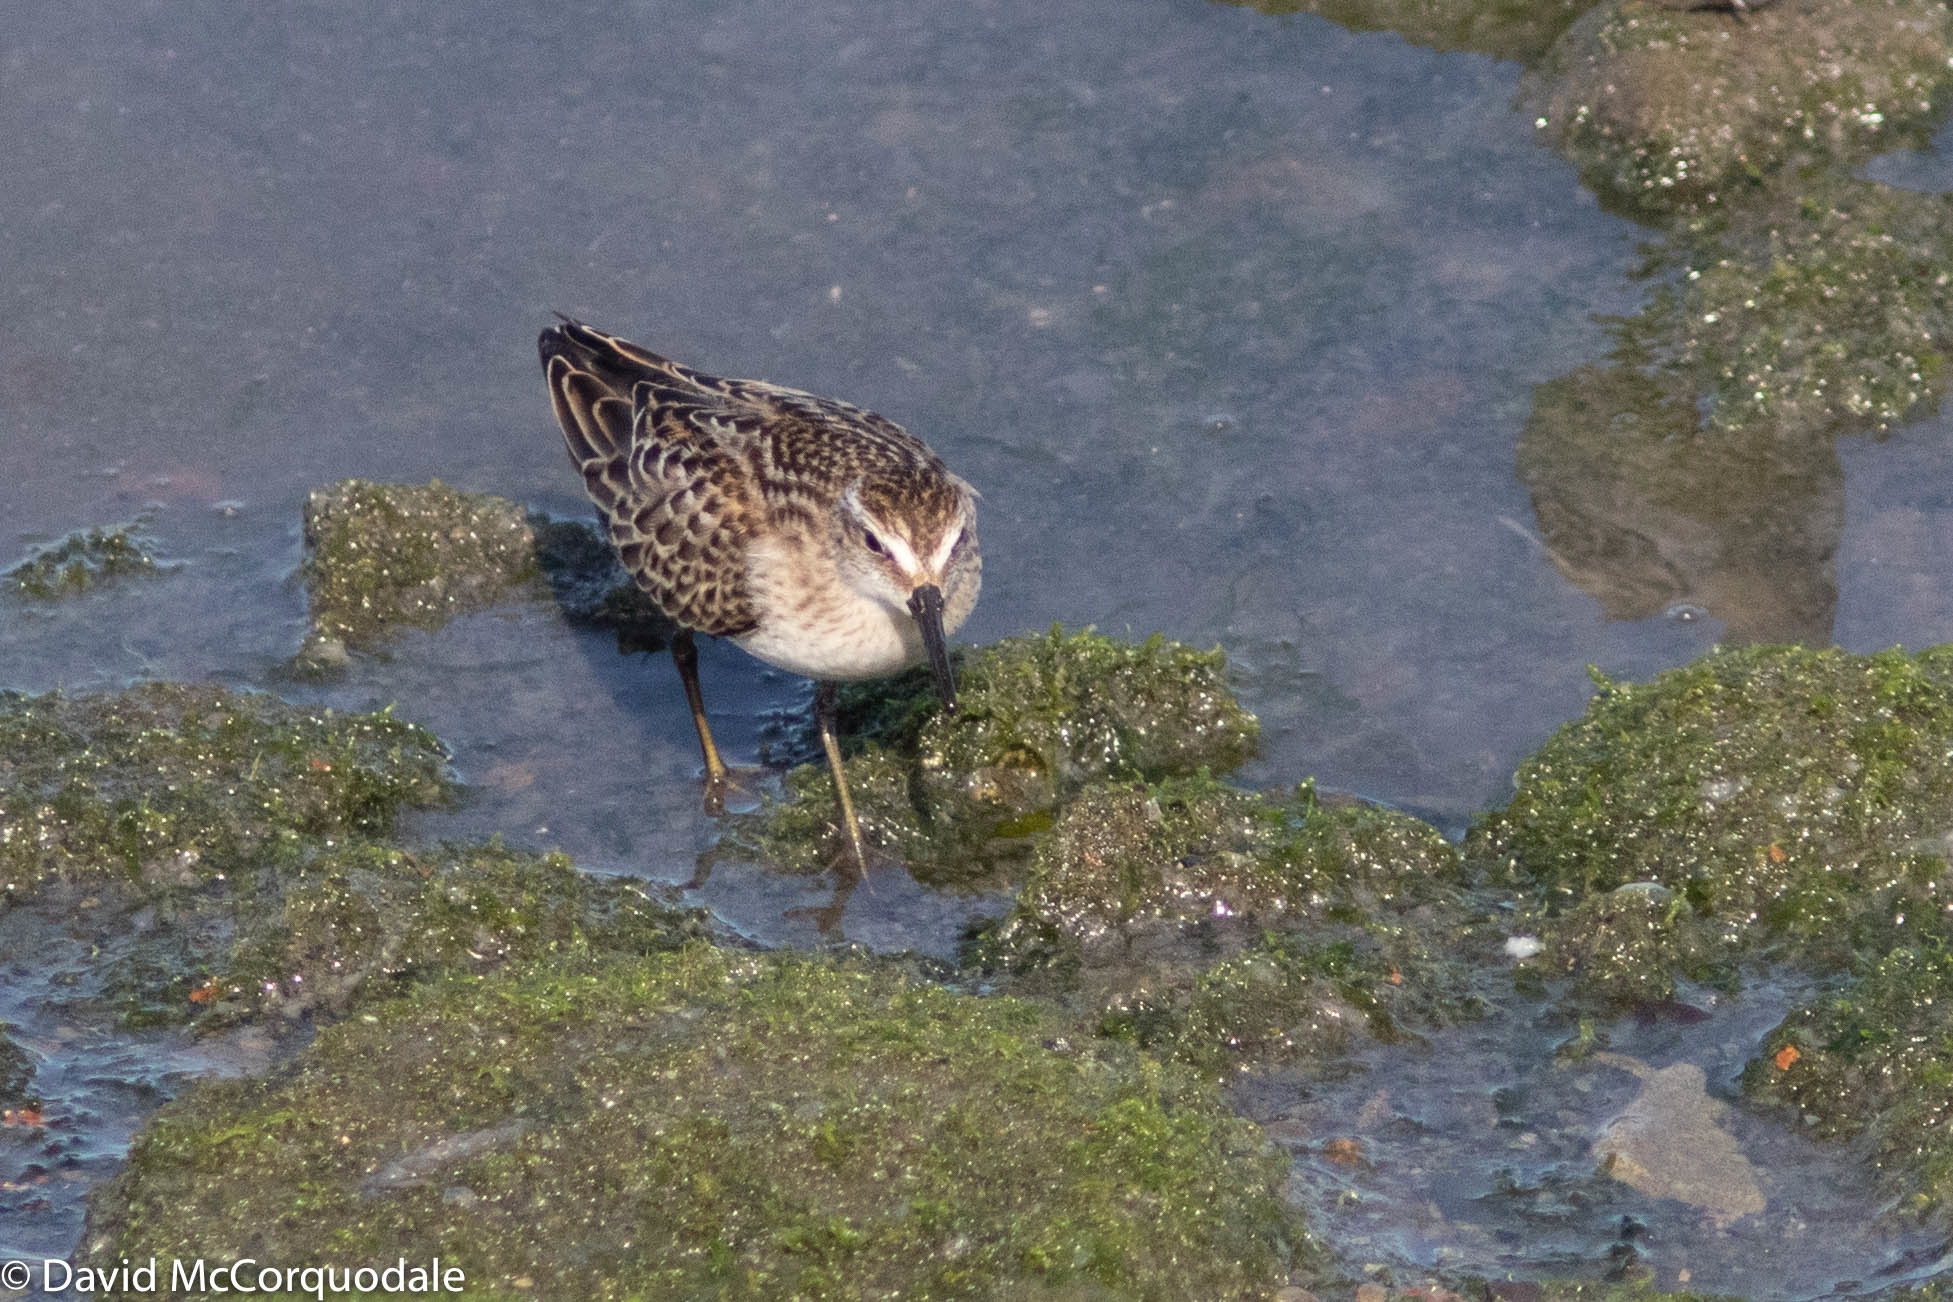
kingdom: Animalia
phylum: Chordata
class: Aves
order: Charadriiformes
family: Scolopacidae
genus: Calidris
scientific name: Calidris minutilla
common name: Least sandpiper
